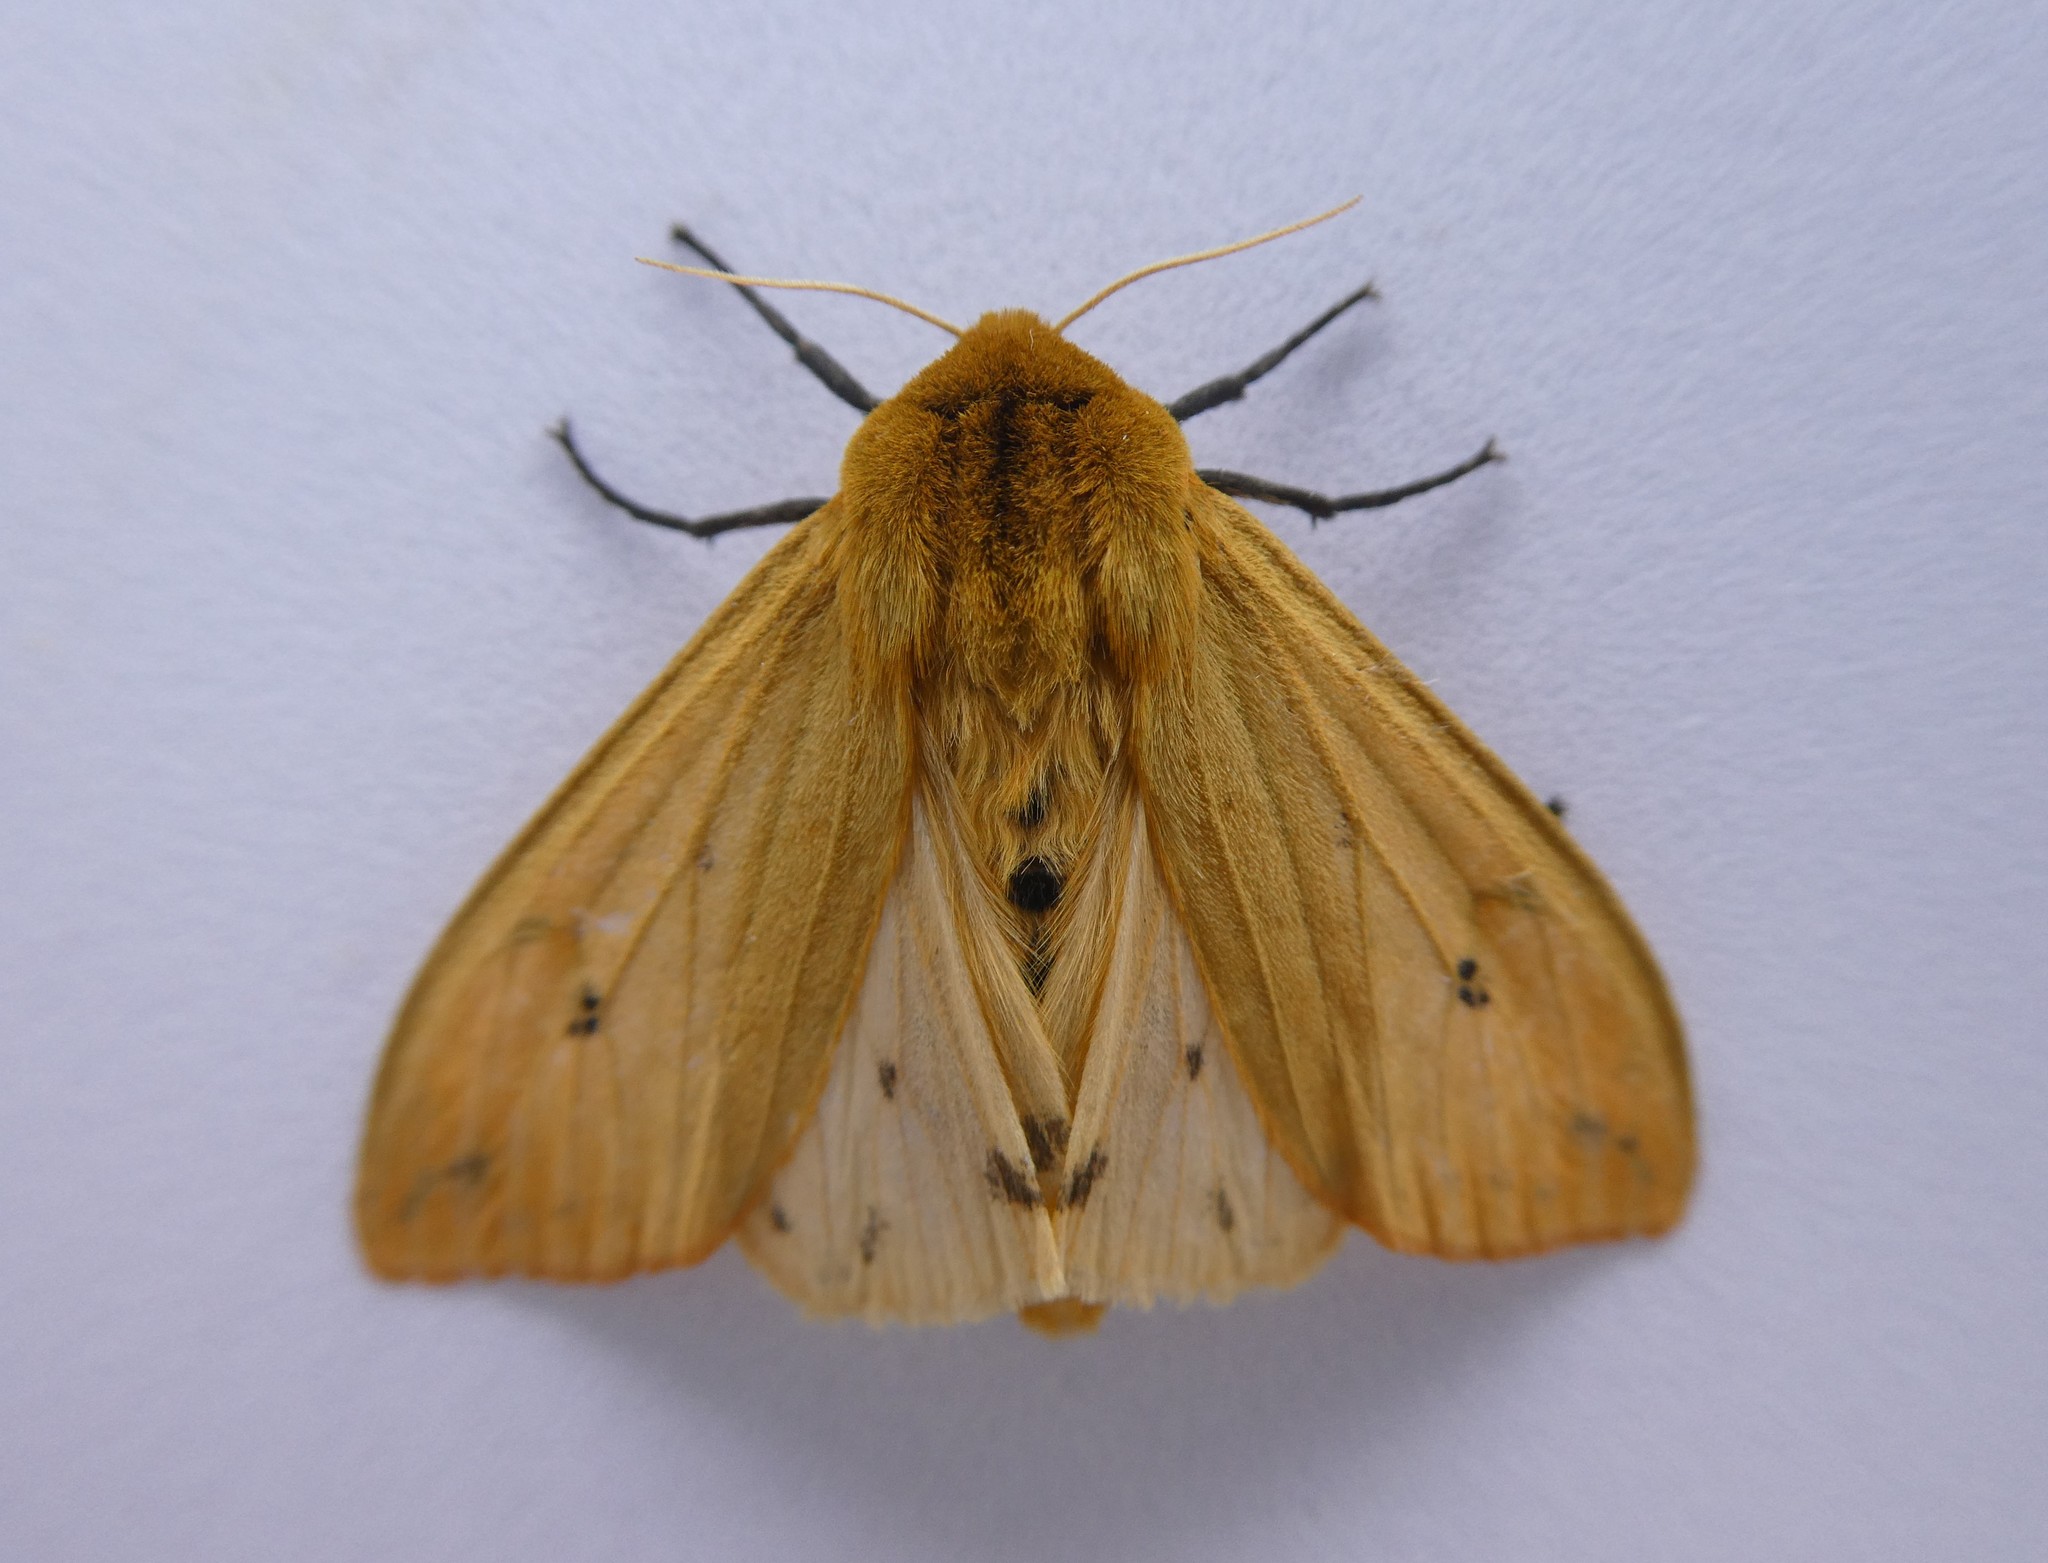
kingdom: Animalia
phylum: Arthropoda
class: Insecta
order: Lepidoptera
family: Erebidae
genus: Pyrrharctia
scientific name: Pyrrharctia isabella
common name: Isabella tiger moth
